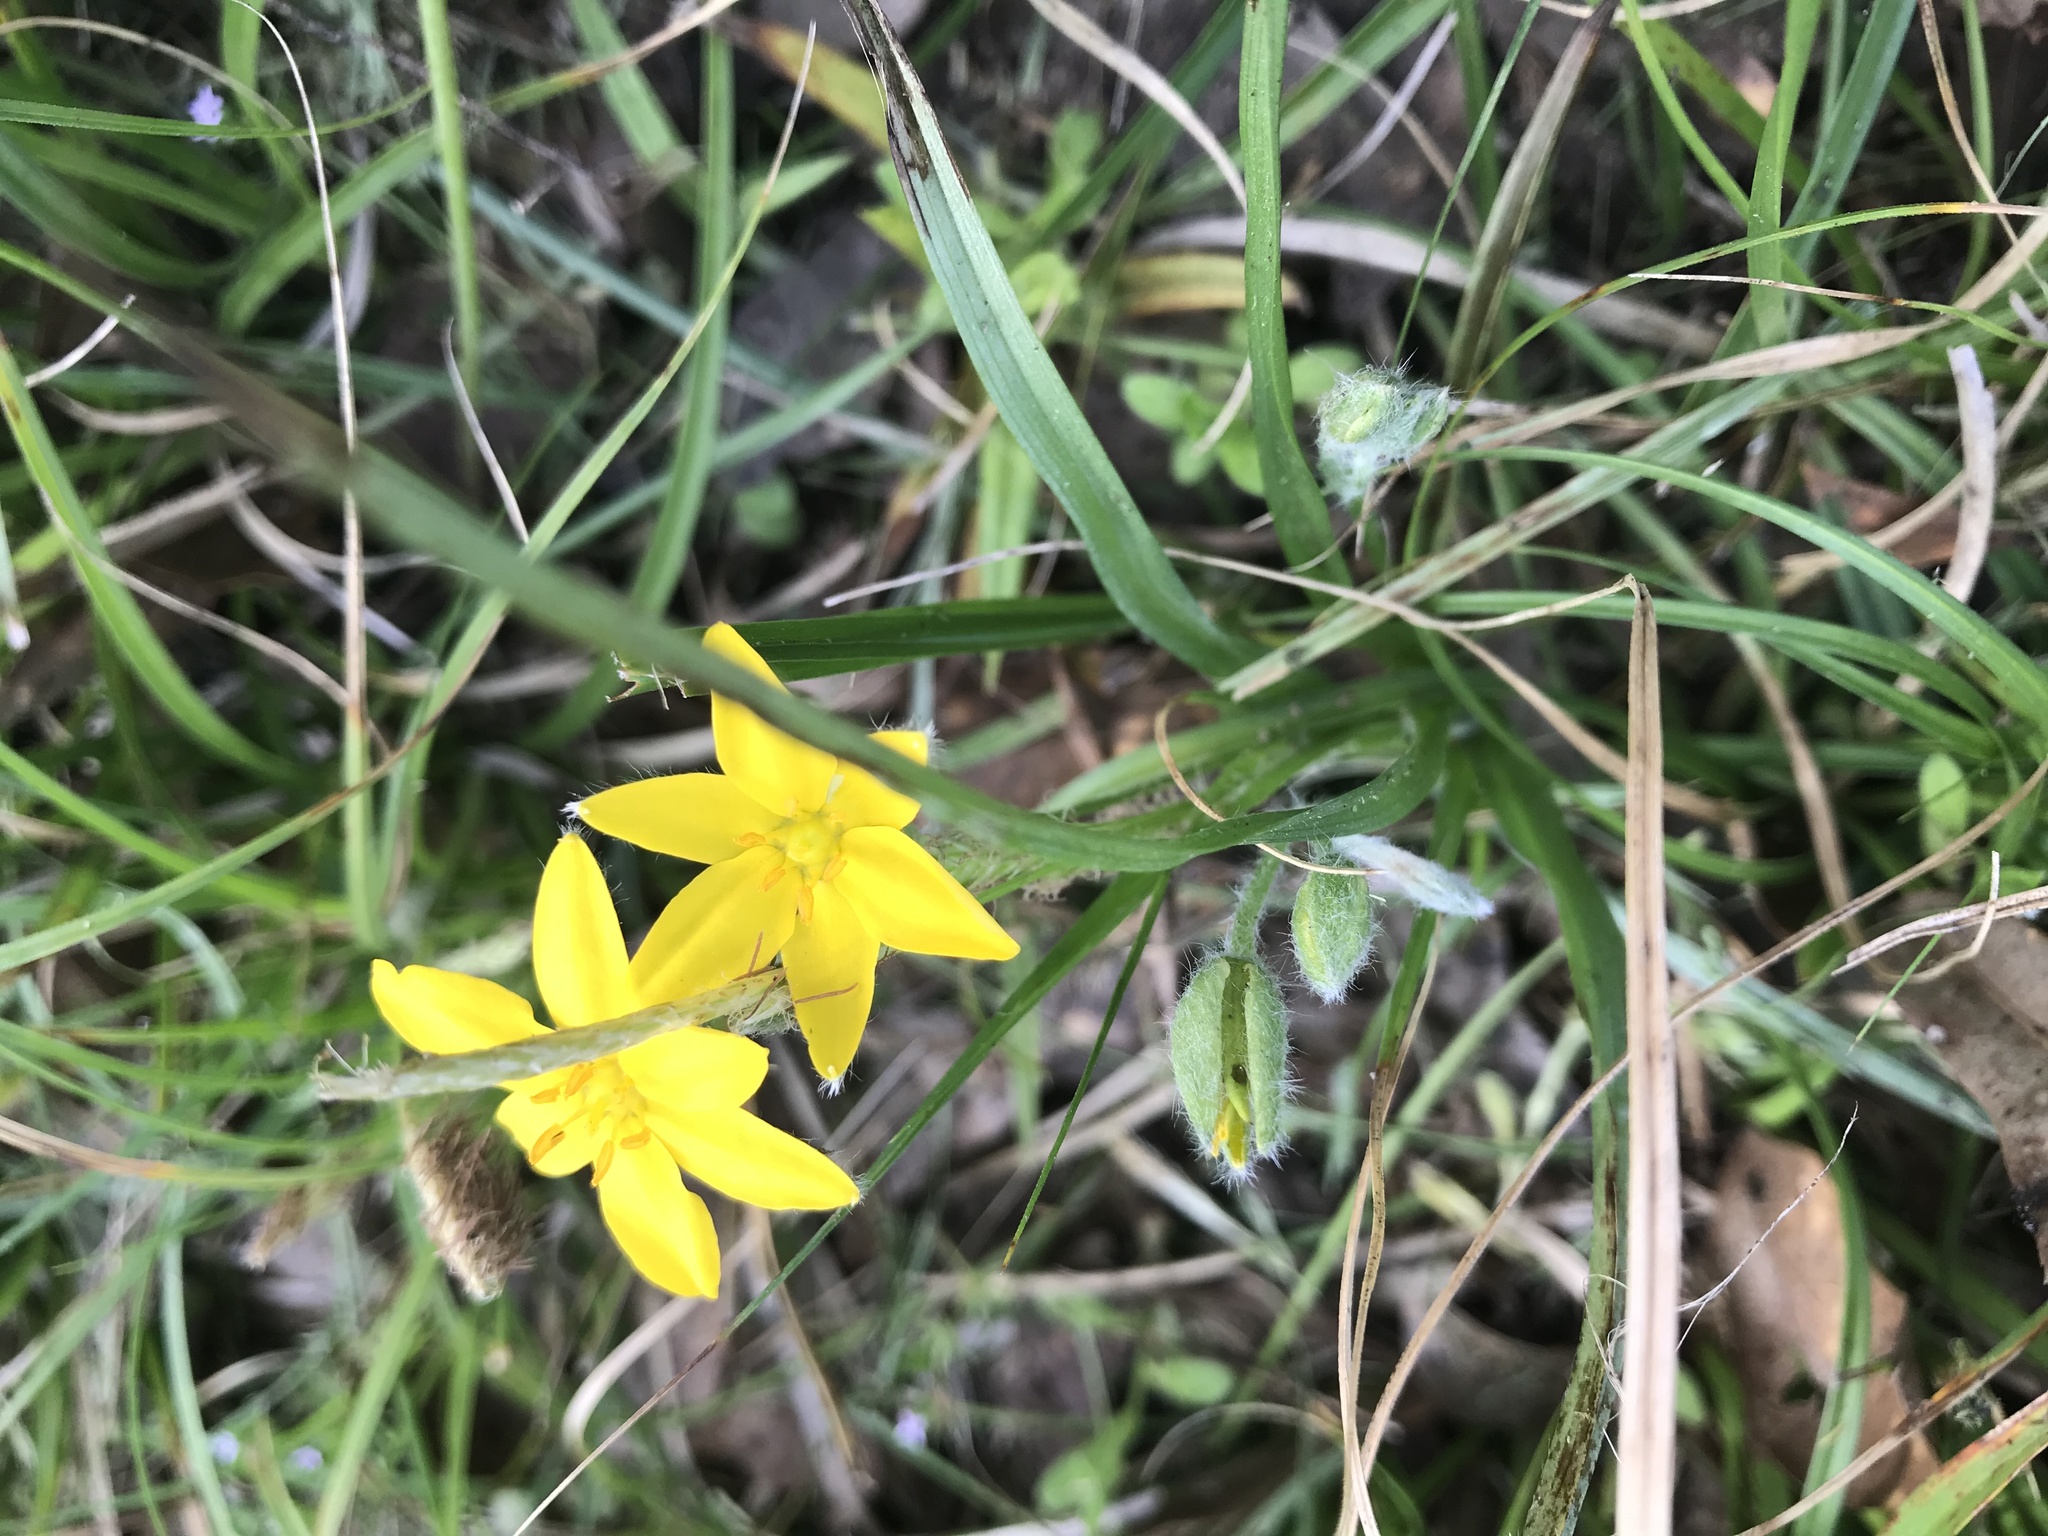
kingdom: Plantae
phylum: Tracheophyta
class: Liliopsida
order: Asparagales
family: Hypoxidaceae
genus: Hypoxis
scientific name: Hypoxis hirsuta
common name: Common goldstar
